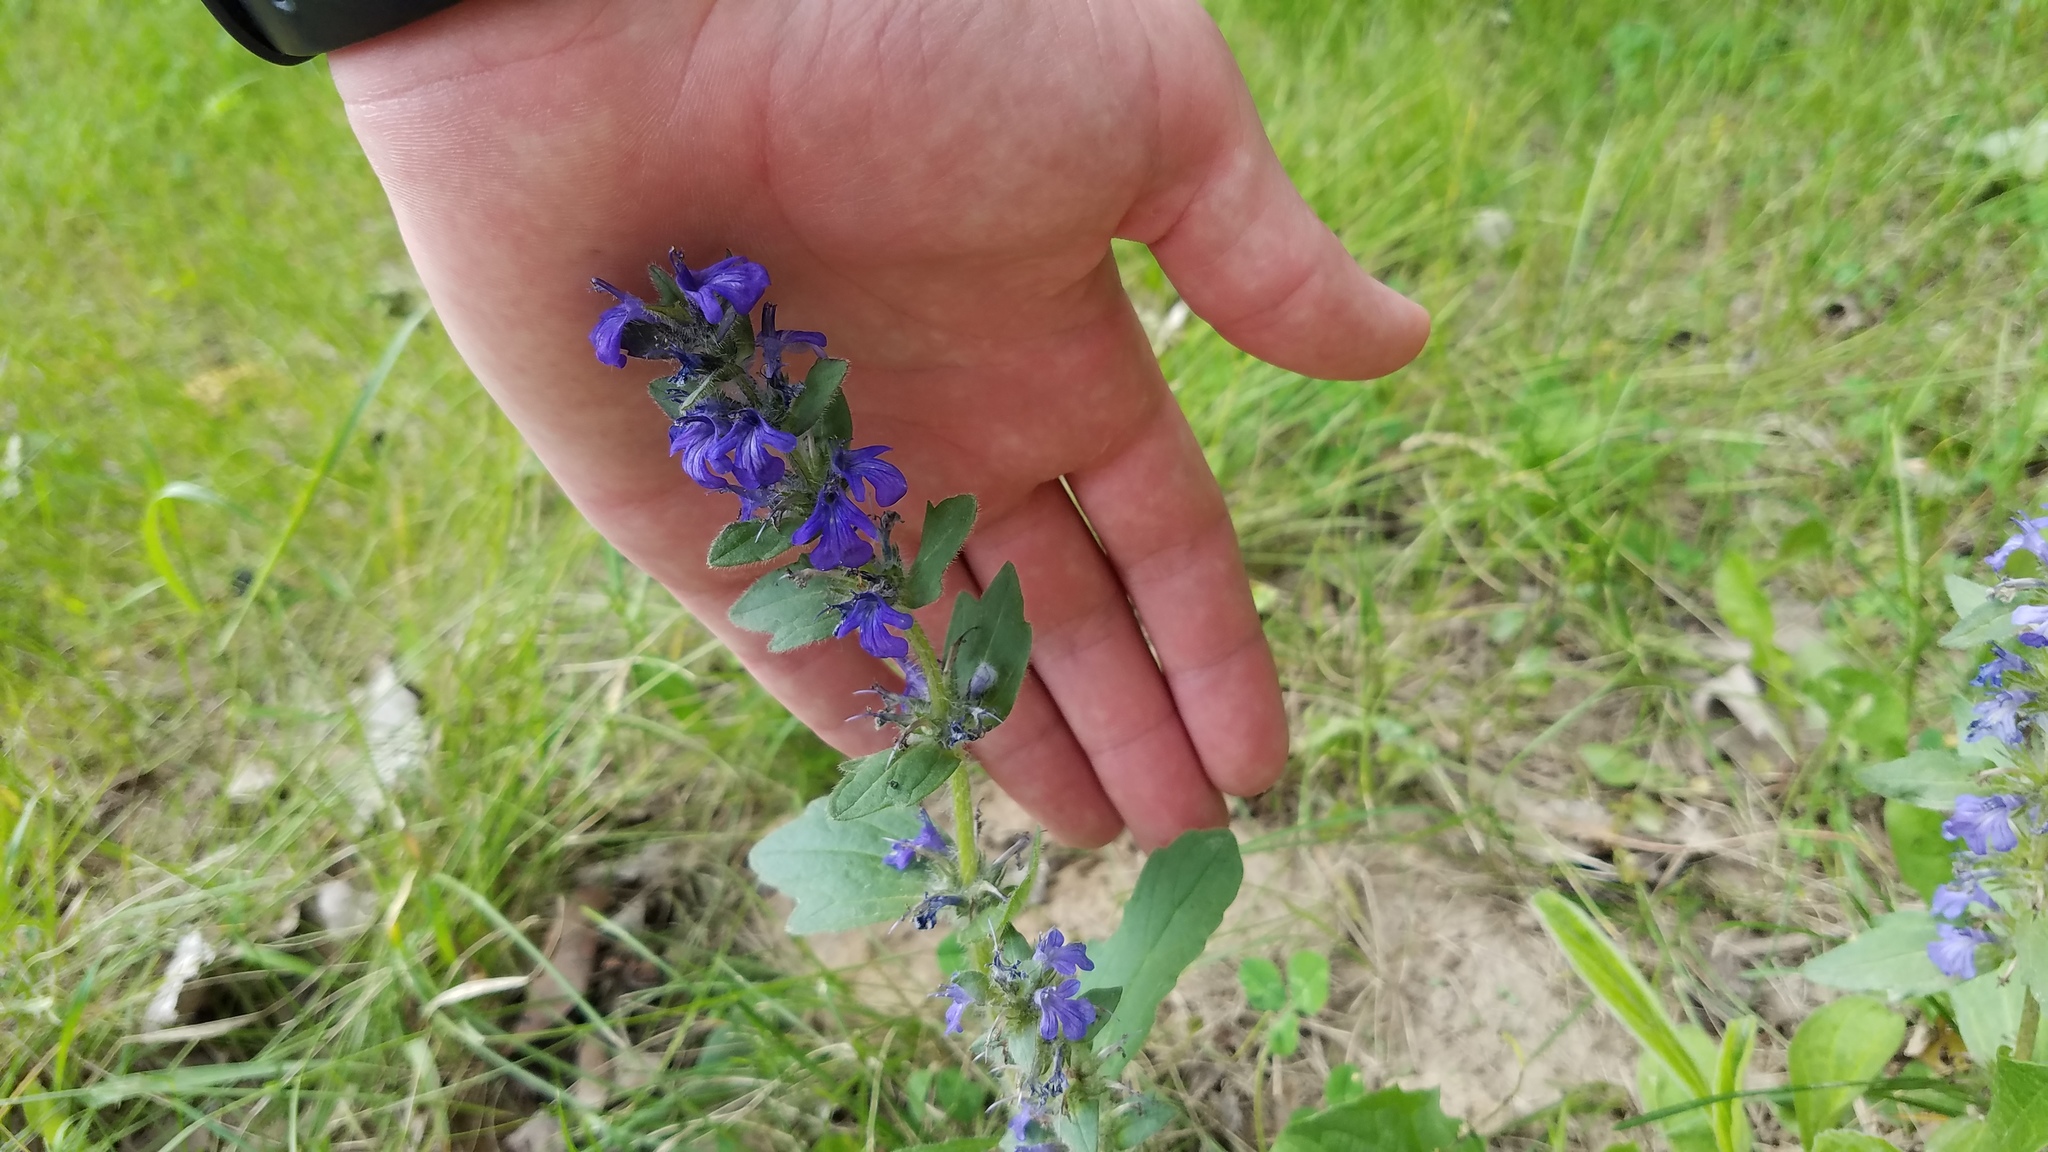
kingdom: Plantae
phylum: Tracheophyta
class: Magnoliopsida
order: Lamiales
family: Lamiaceae
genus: Ajuga
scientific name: Ajuga genevensis
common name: Blue bugle
